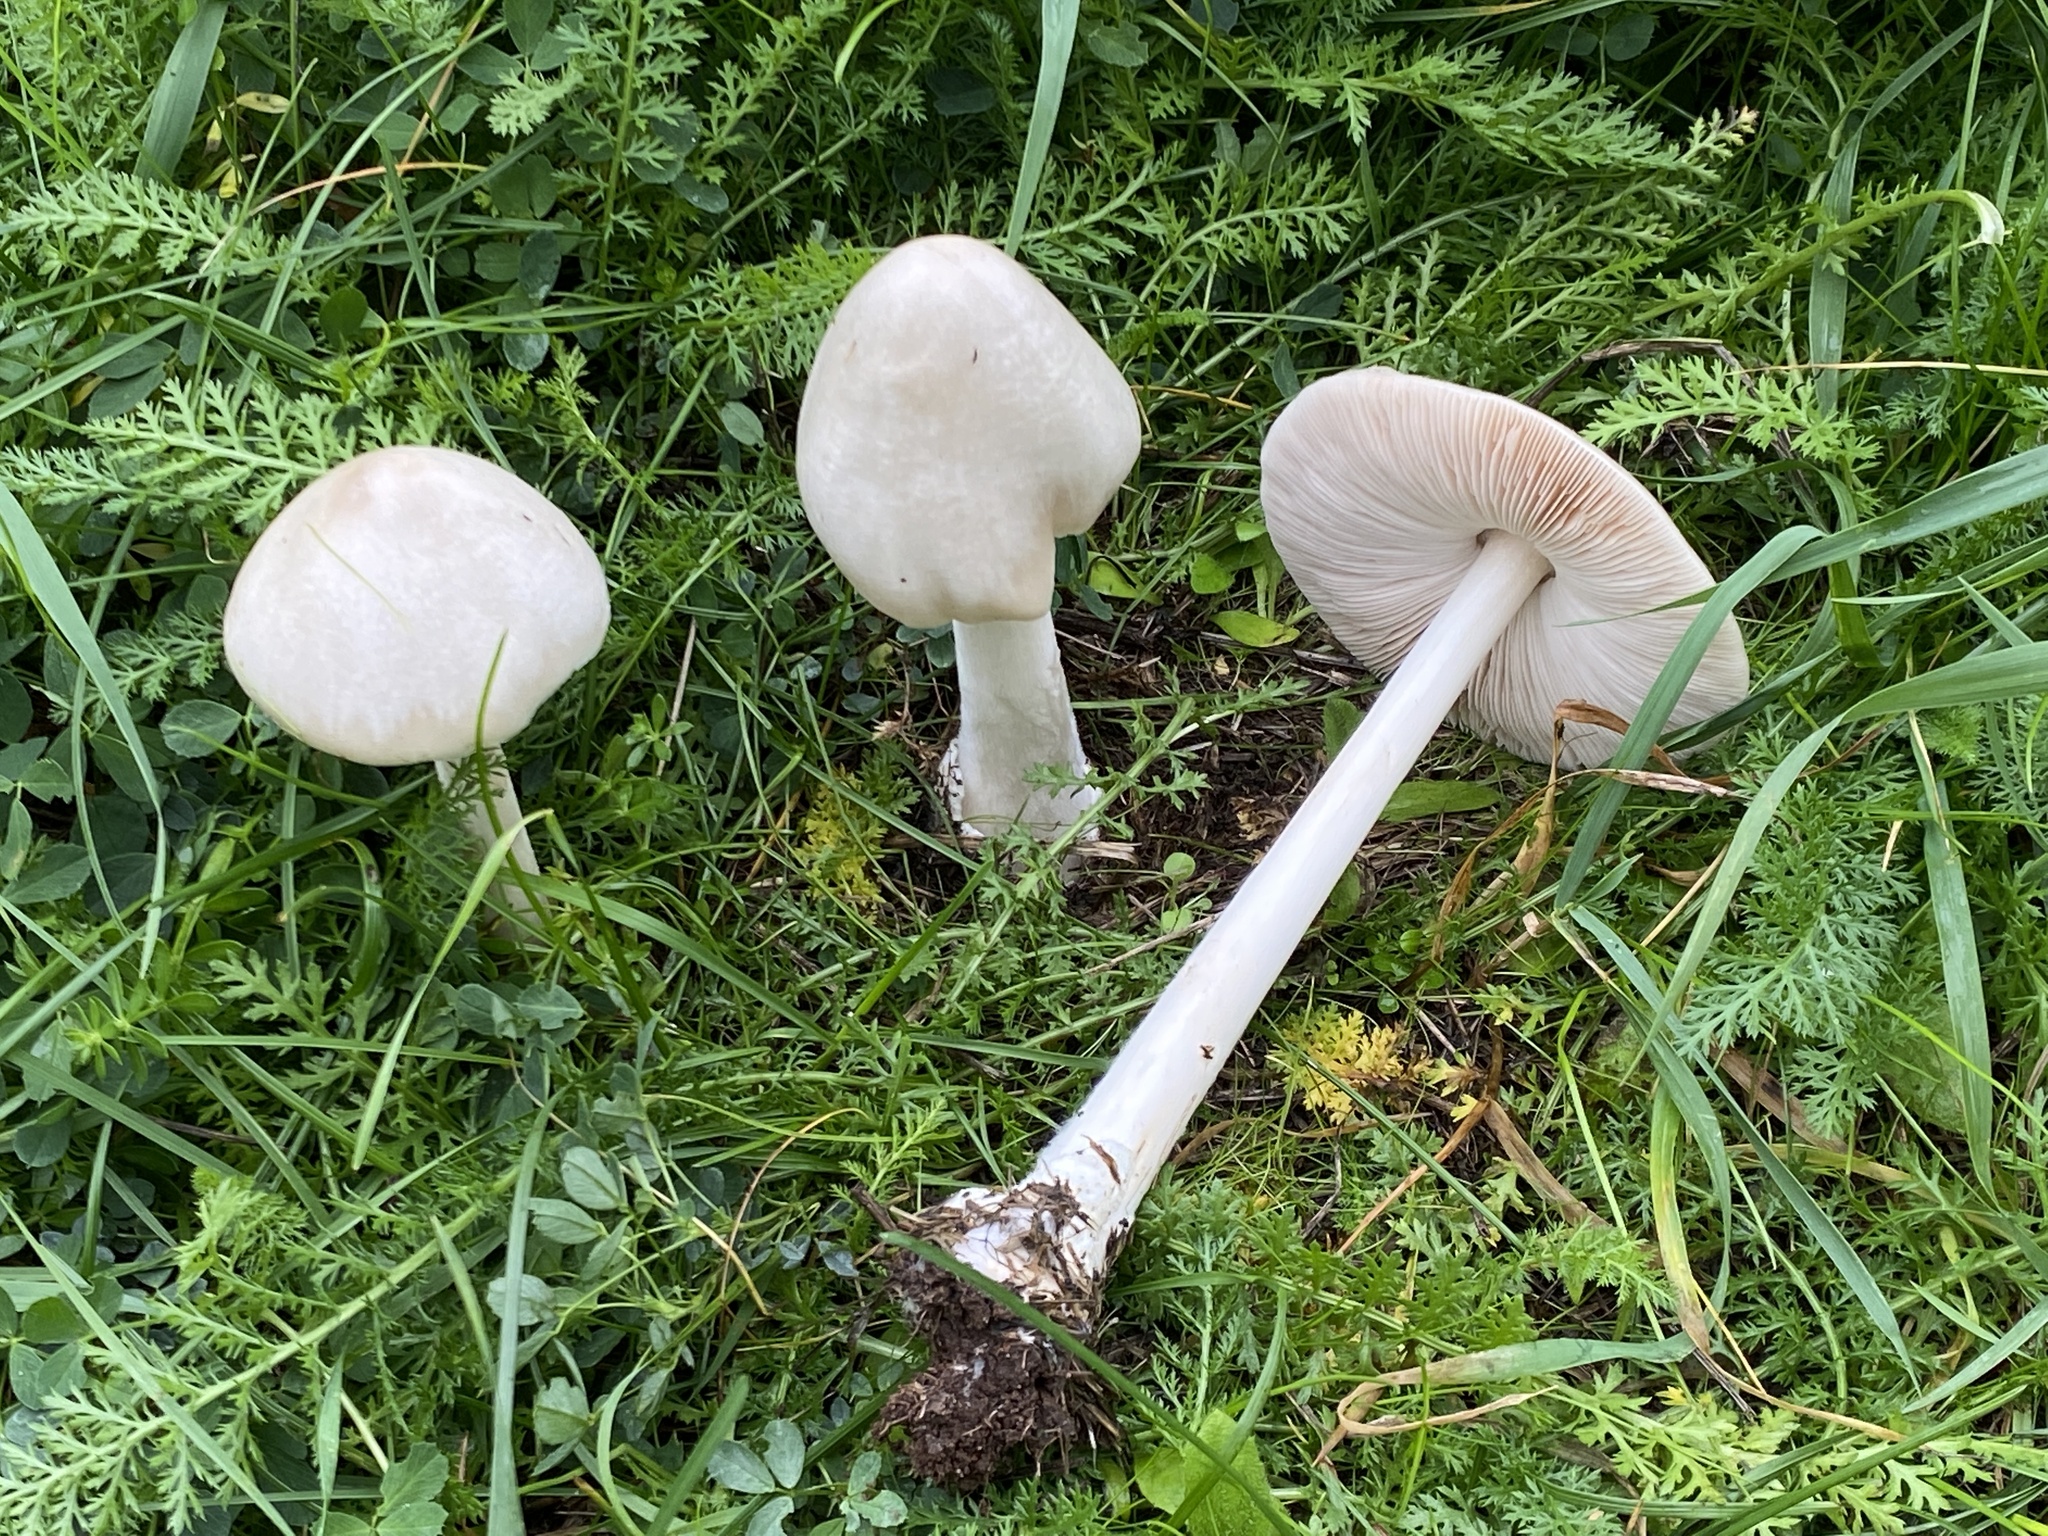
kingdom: Fungi
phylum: Basidiomycota
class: Agaricomycetes
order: Agaricales
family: Pluteaceae
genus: Volvopluteus
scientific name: Volvopluteus gloiocephalus
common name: Stubble rosegill
